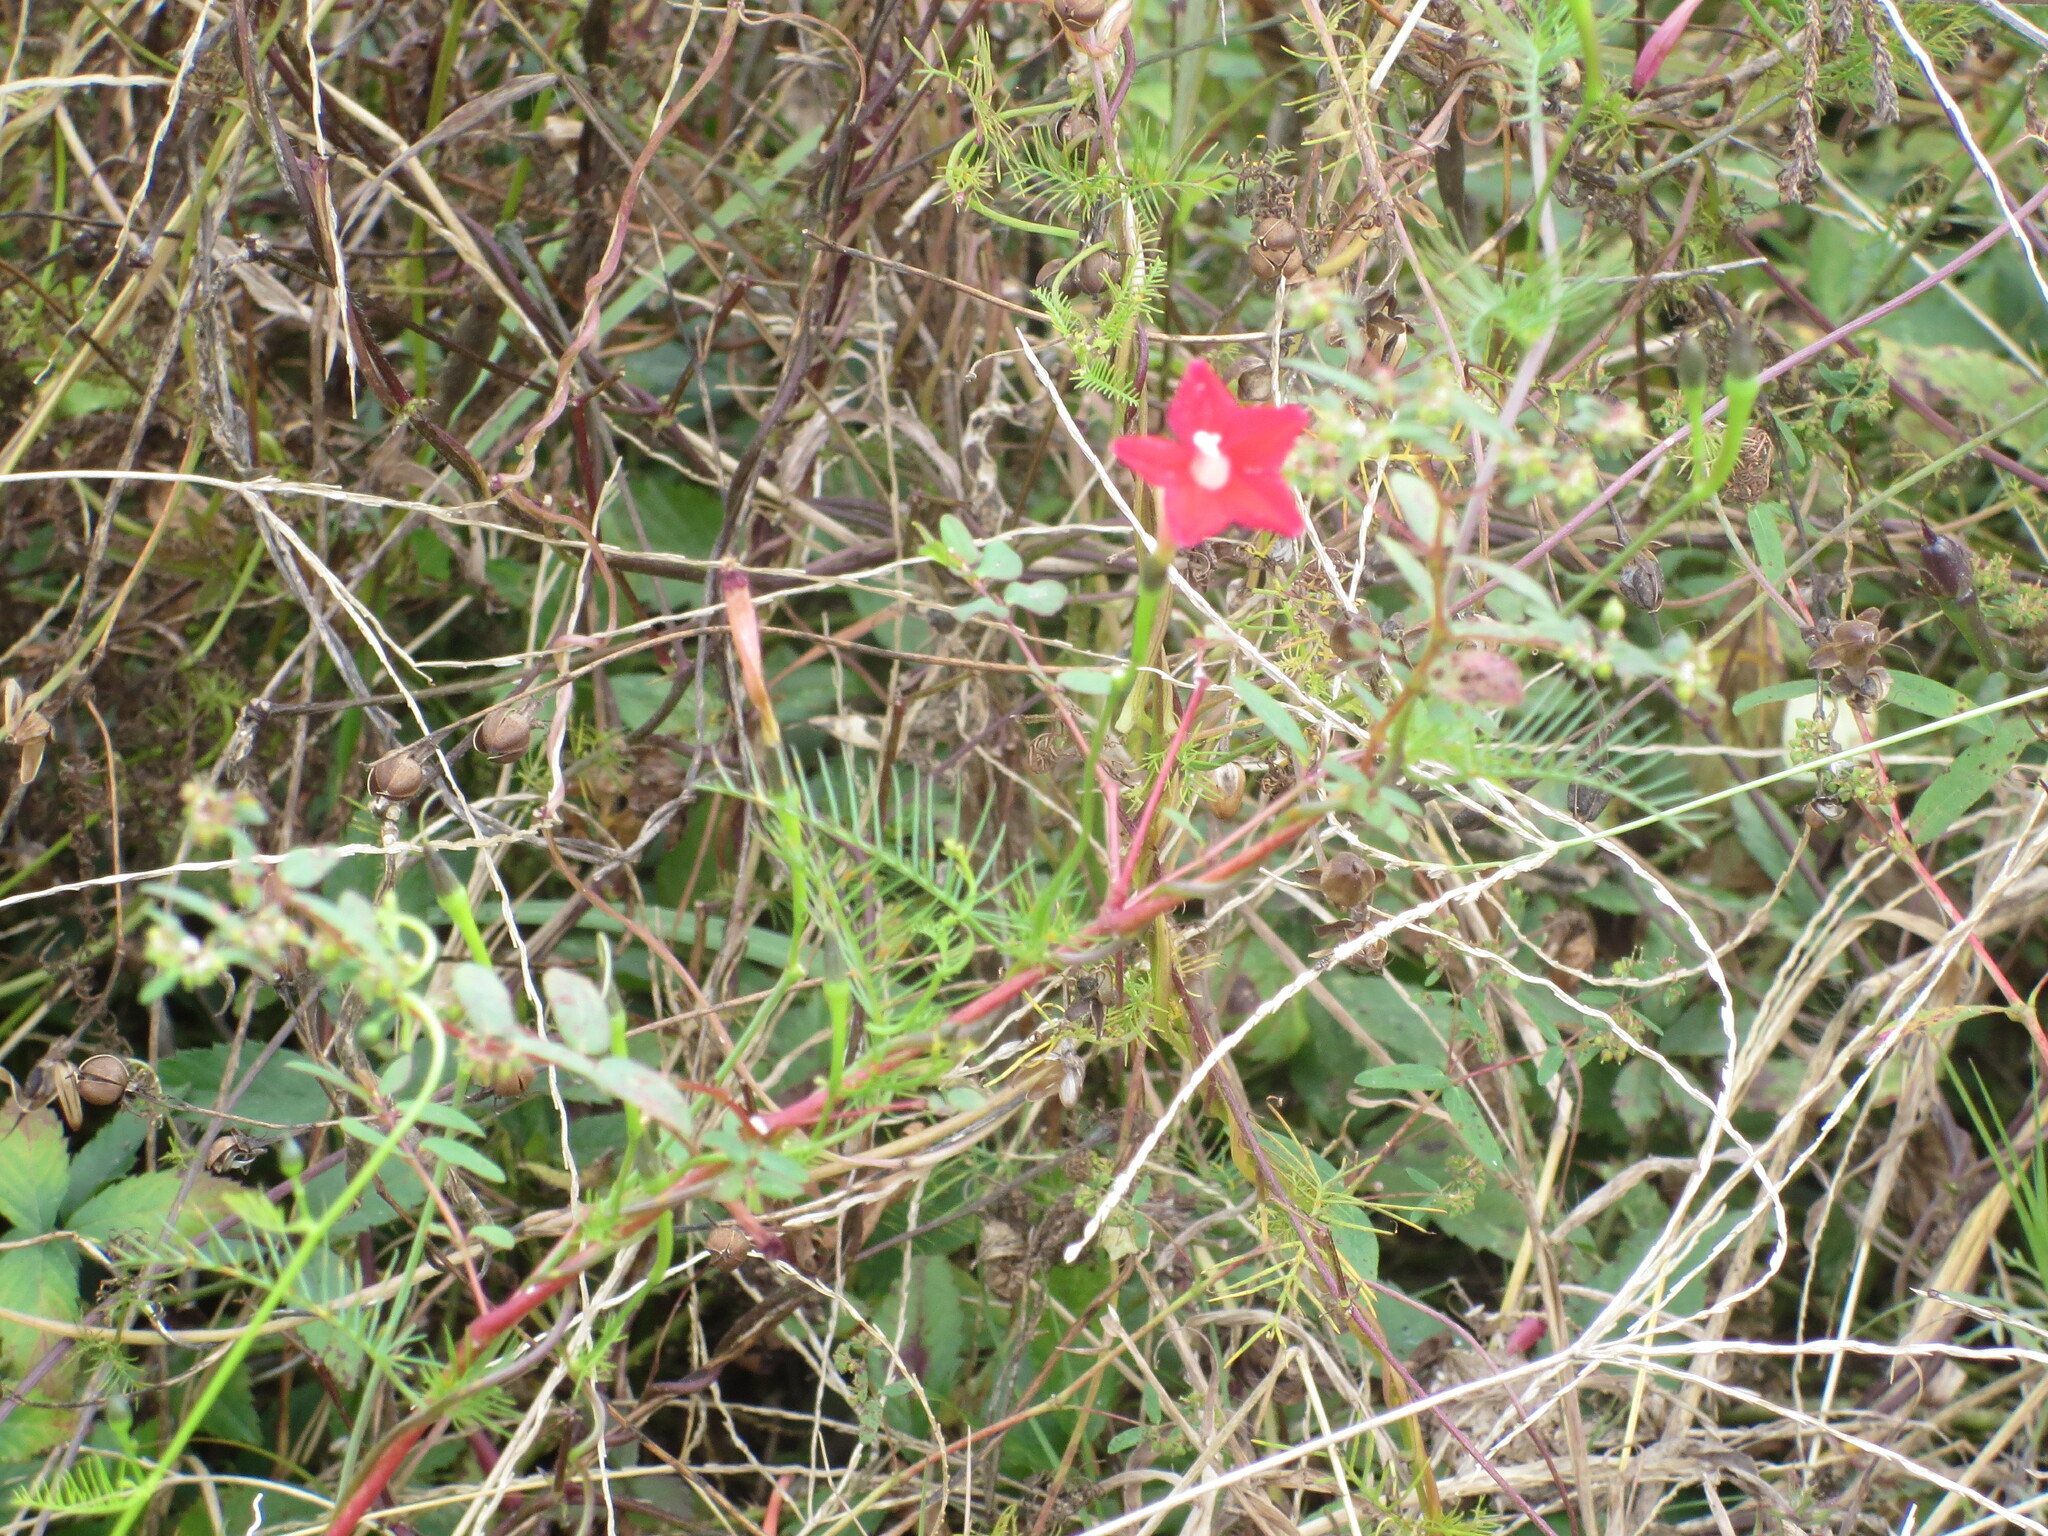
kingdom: Plantae
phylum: Tracheophyta
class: Magnoliopsida
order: Solanales
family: Convolvulaceae
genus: Ipomoea
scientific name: Ipomoea quamoclit
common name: Cypress vine
